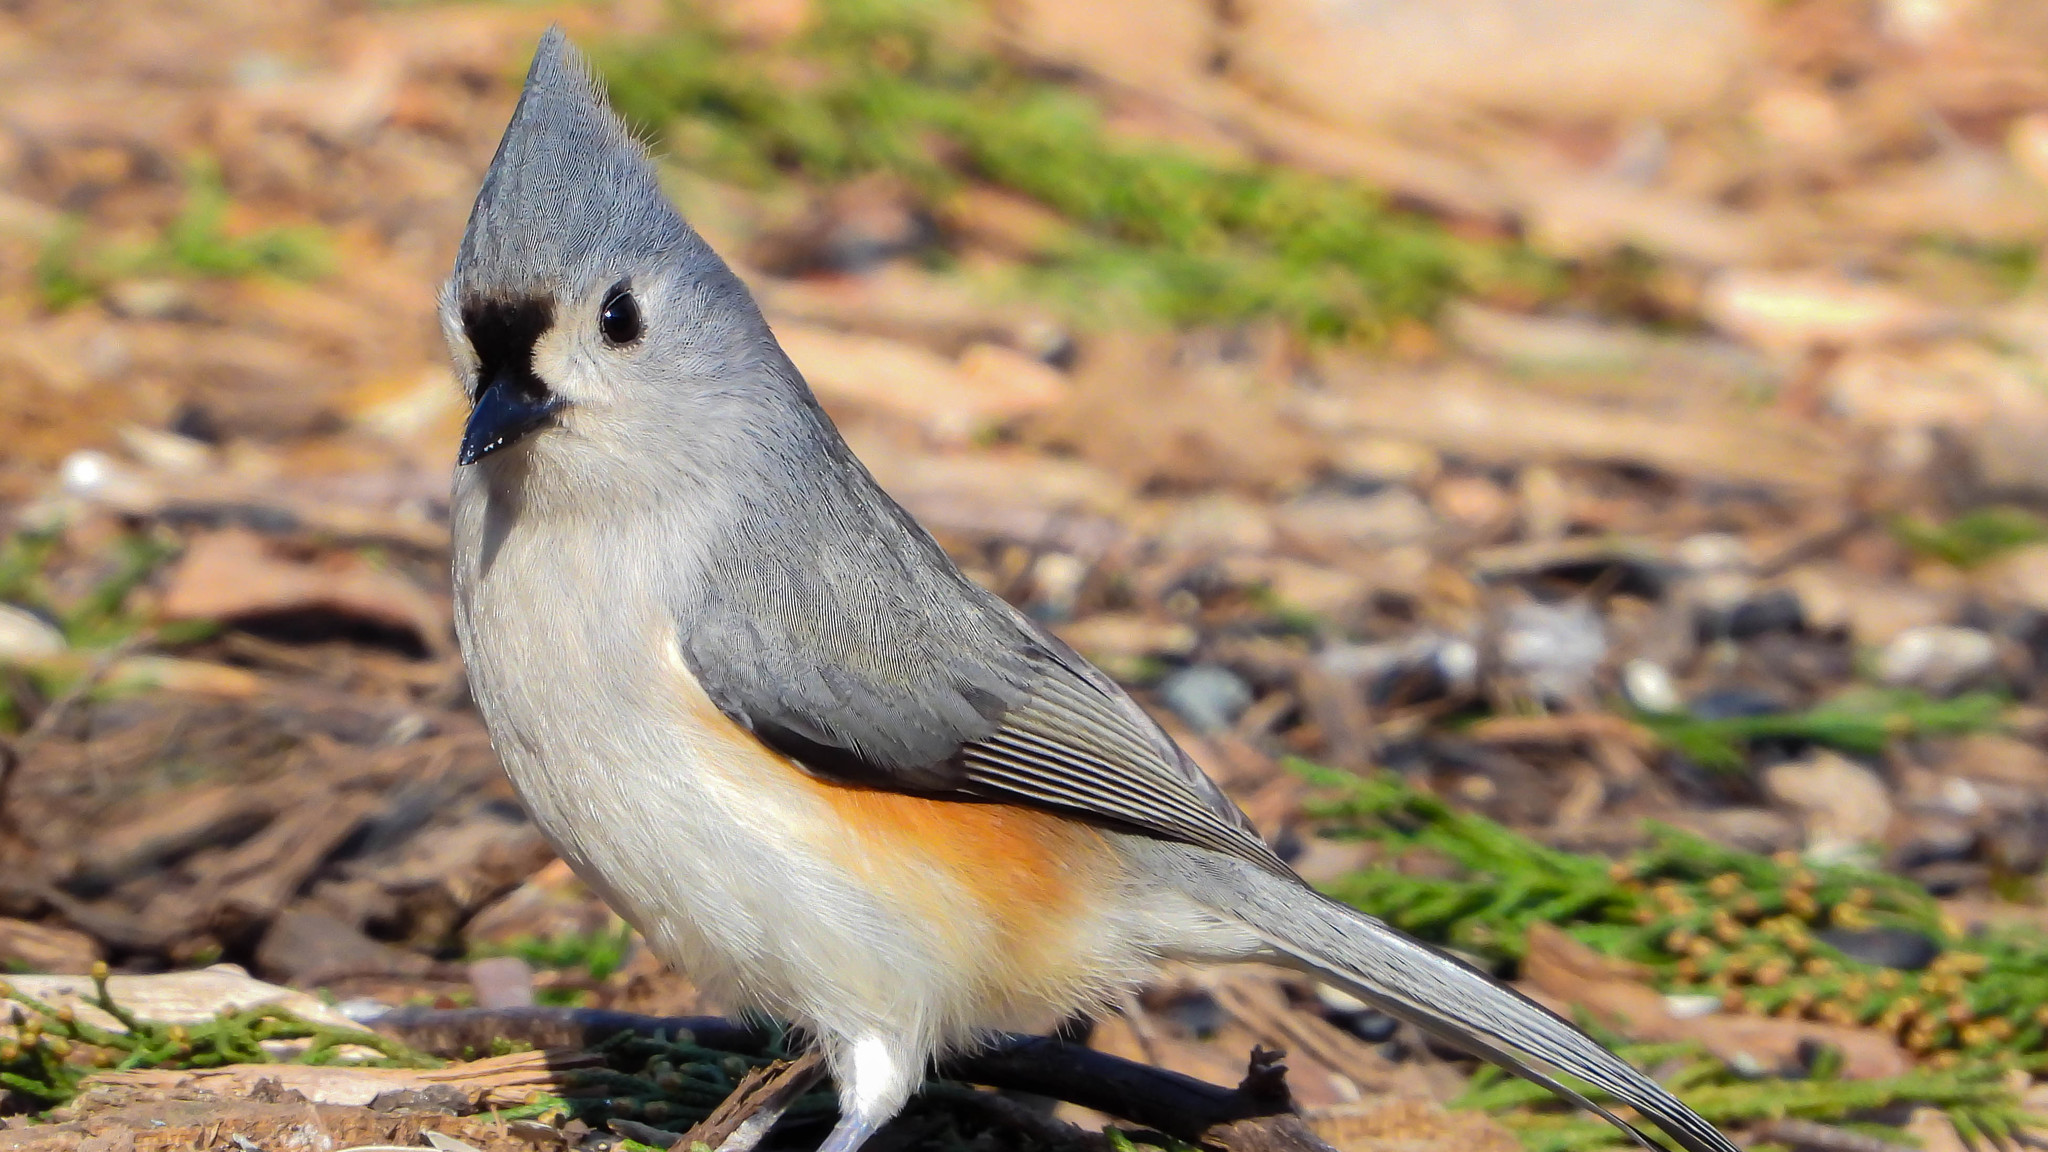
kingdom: Animalia
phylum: Chordata
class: Aves
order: Passeriformes
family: Paridae
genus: Baeolophus
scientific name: Baeolophus bicolor
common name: Tufted titmouse
